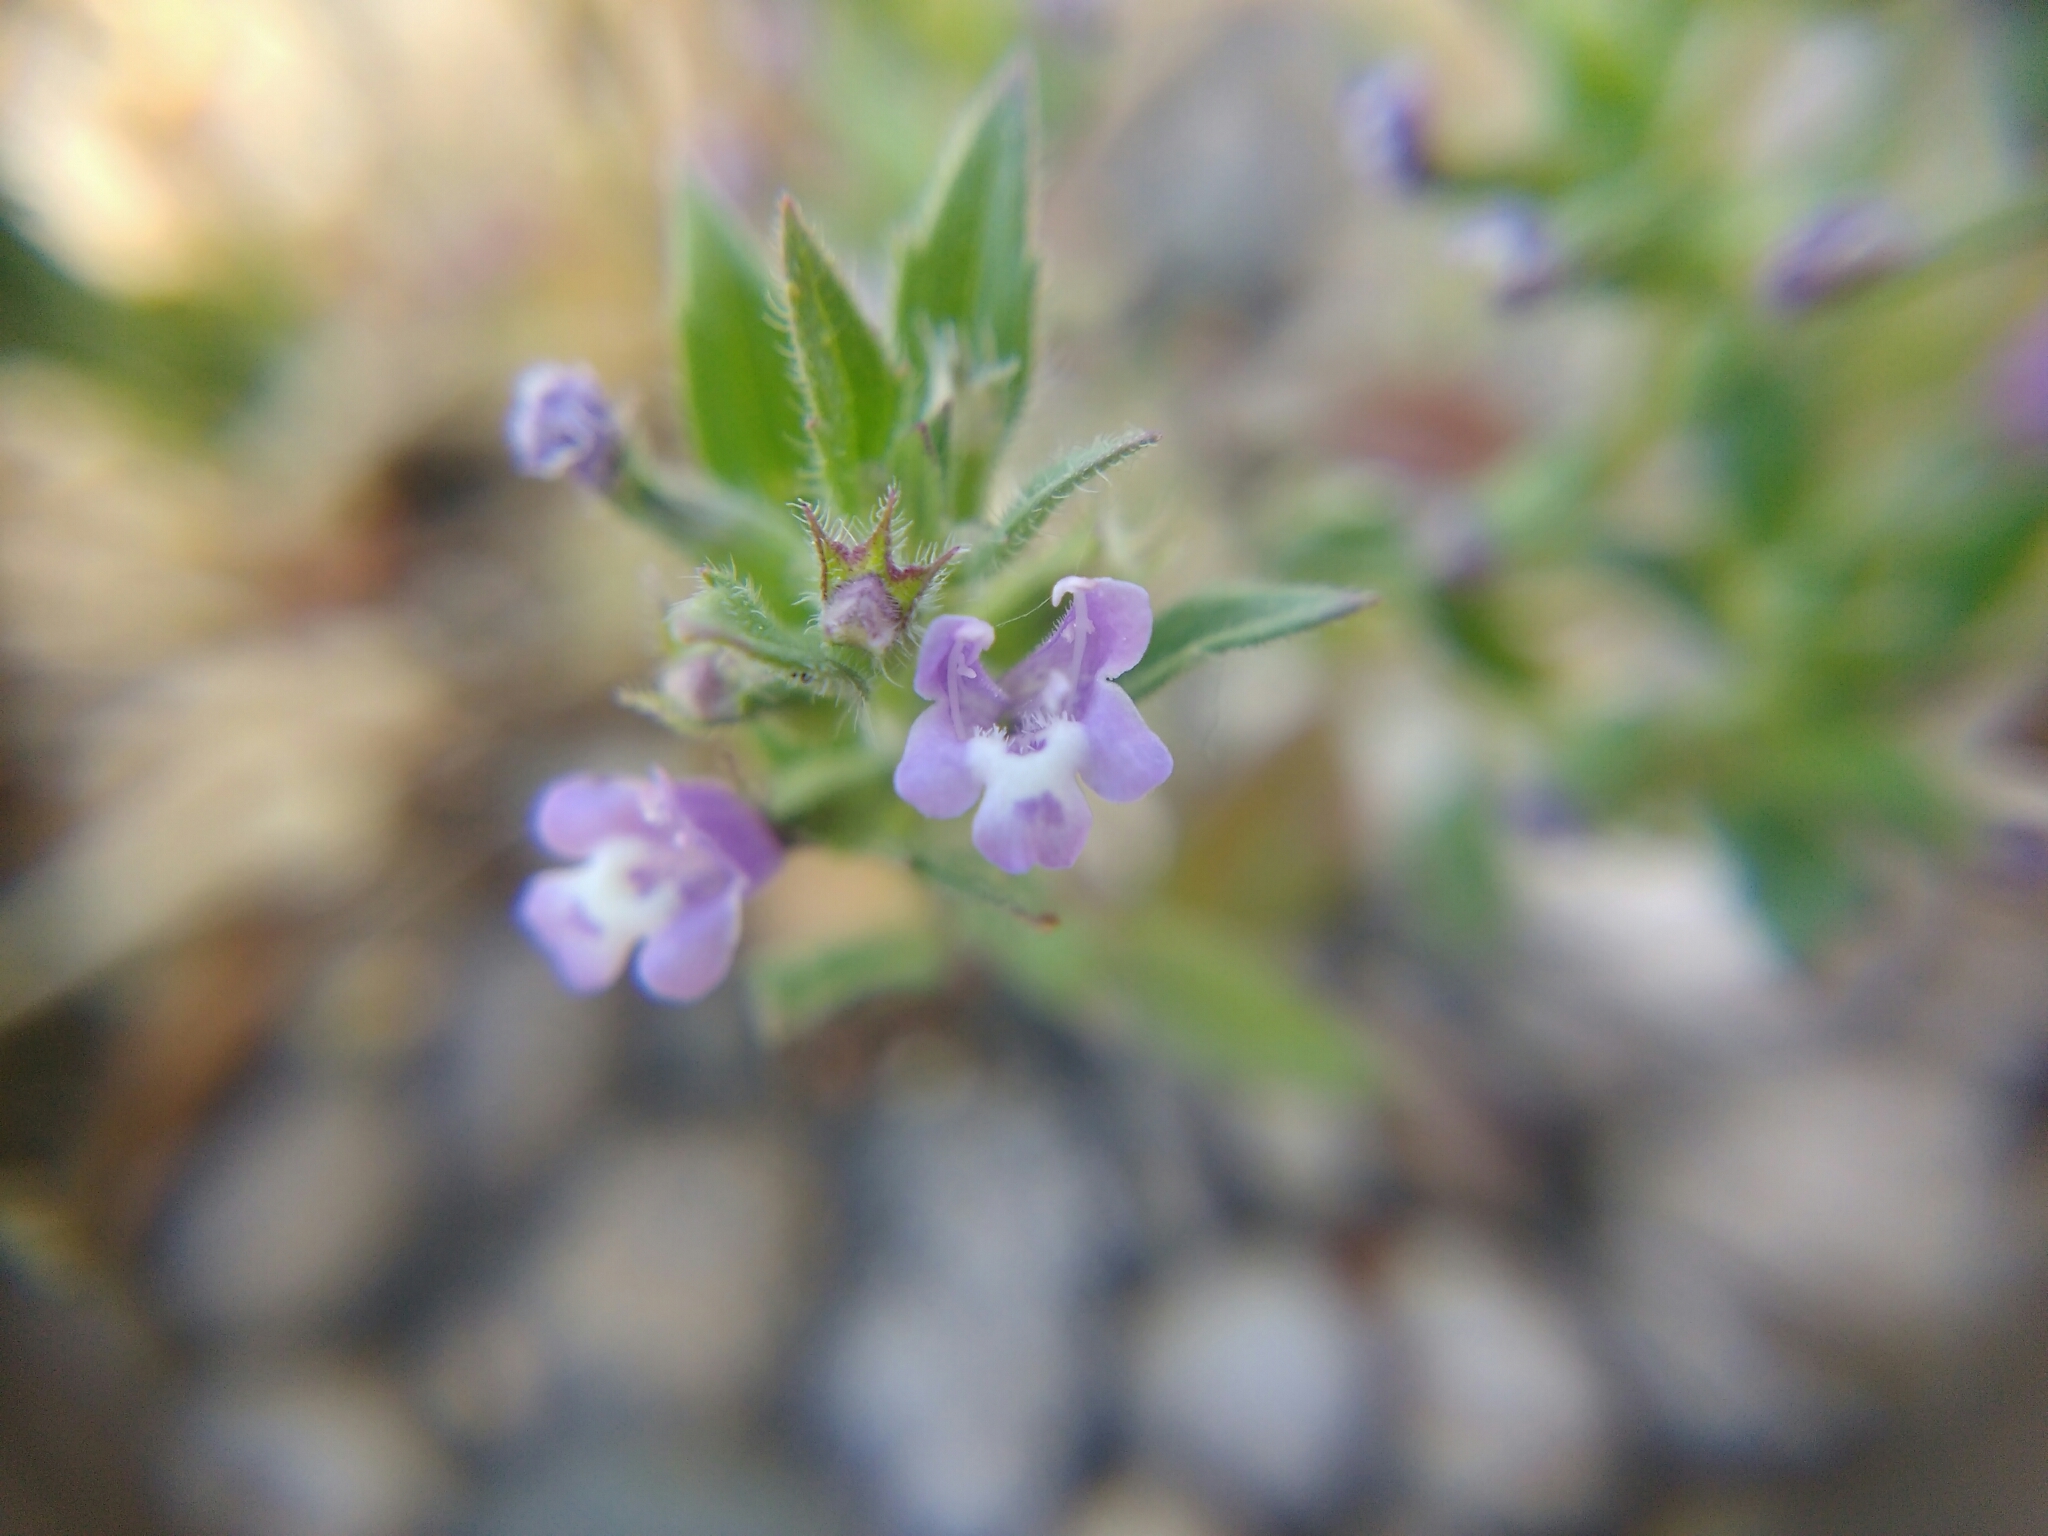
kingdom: Plantae
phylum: Tracheophyta
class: Magnoliopsida
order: Lamiales
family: Lamiaceae
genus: Clinopodium
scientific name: Clinopodium acinos
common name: Basil thyme
